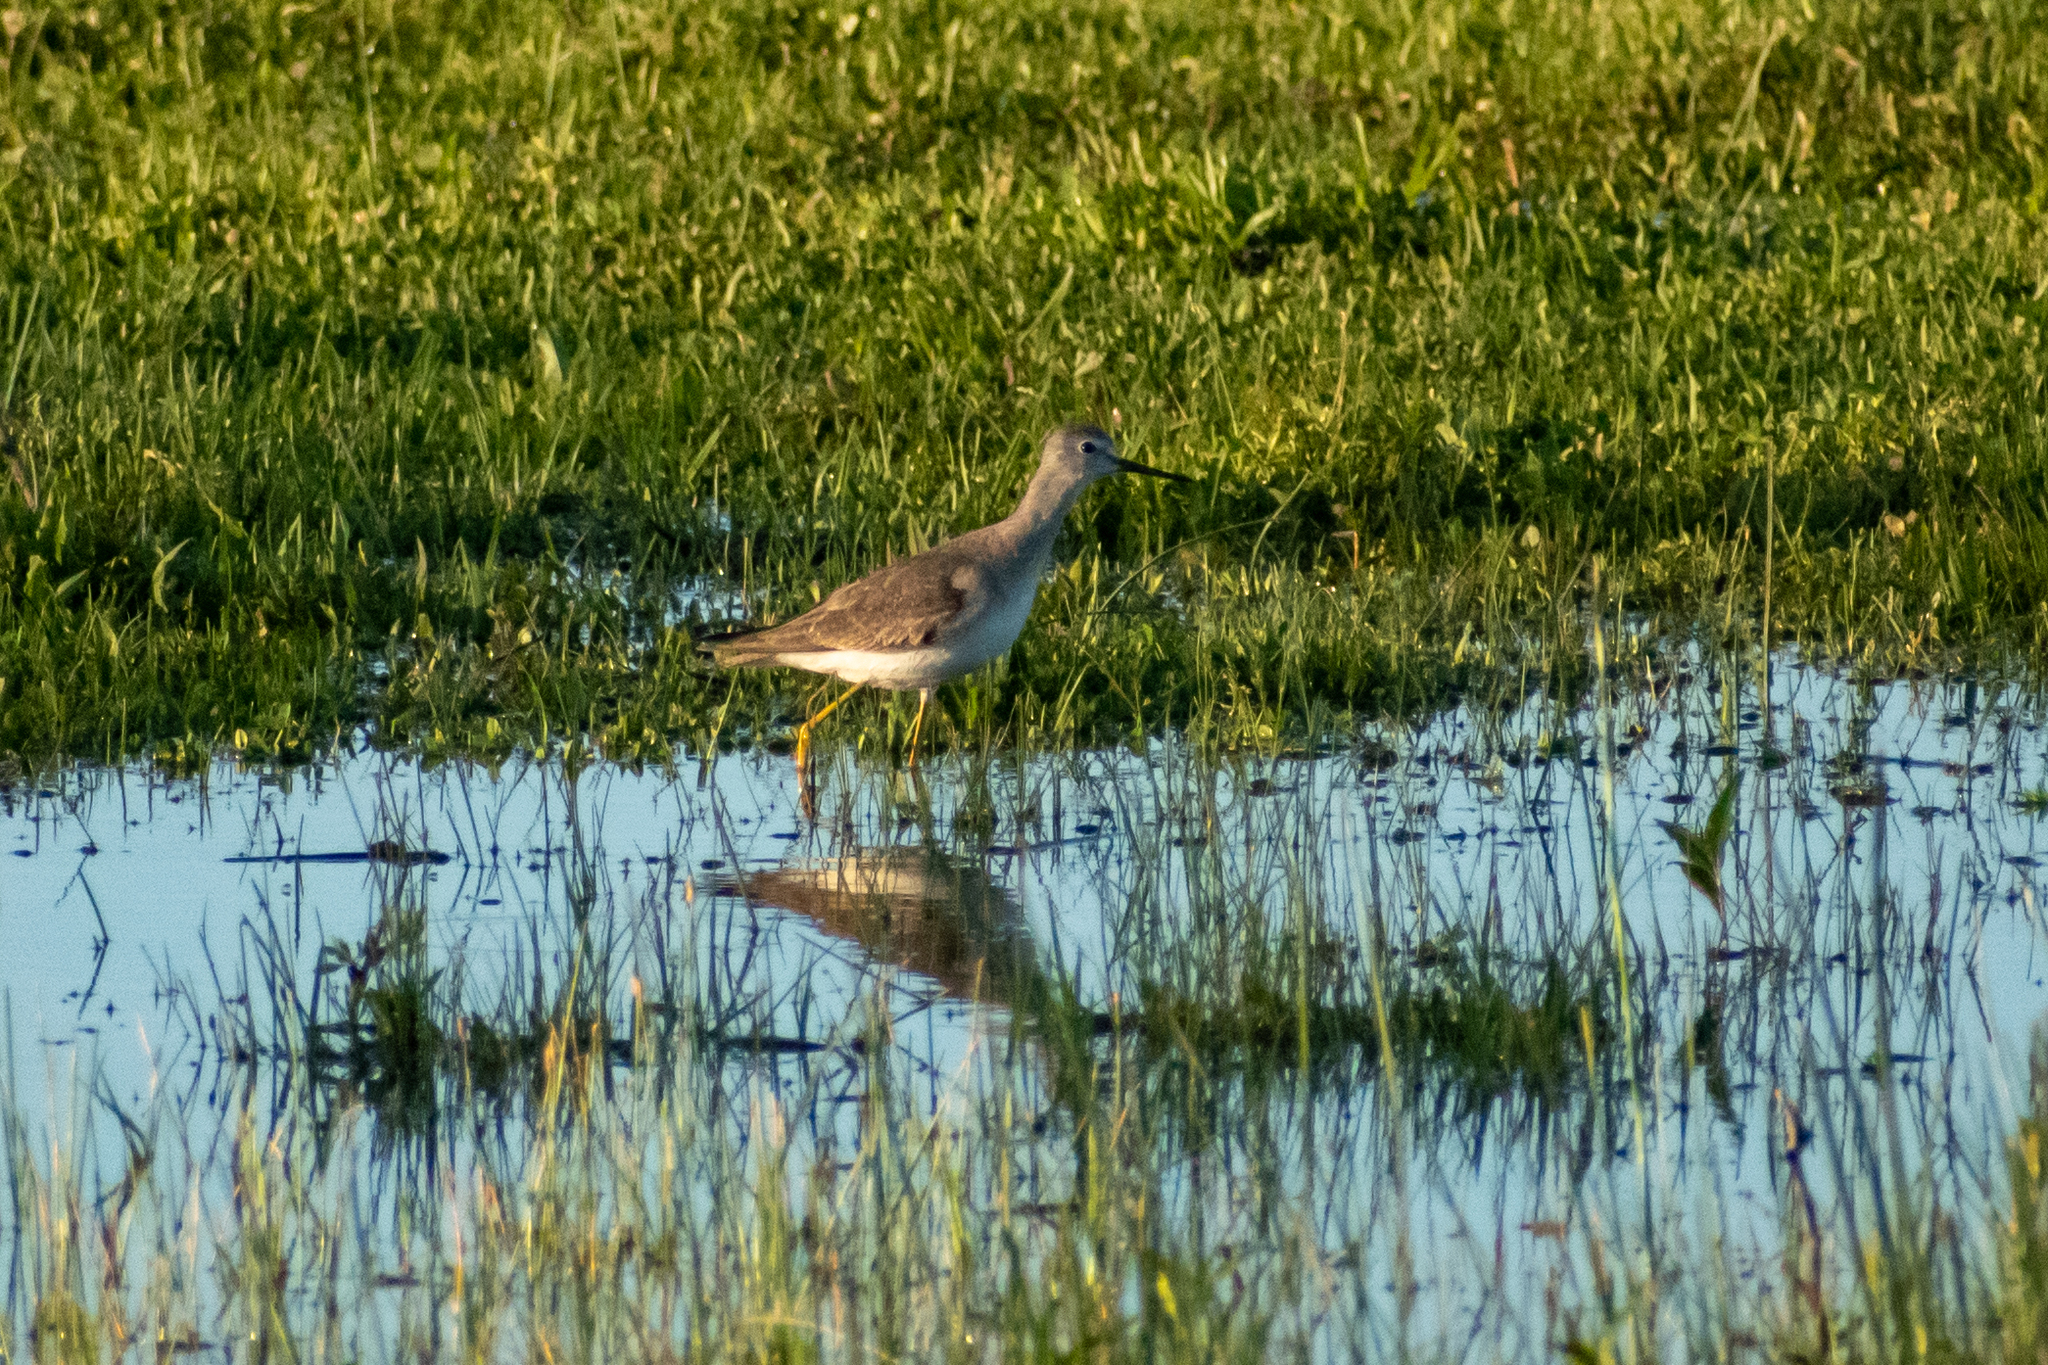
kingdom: Animalia
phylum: Chordata
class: Aves
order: Charadriiformes
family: Scolopacidae
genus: Tringa
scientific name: Tringa flavipes
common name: Lesser yellowlegs
